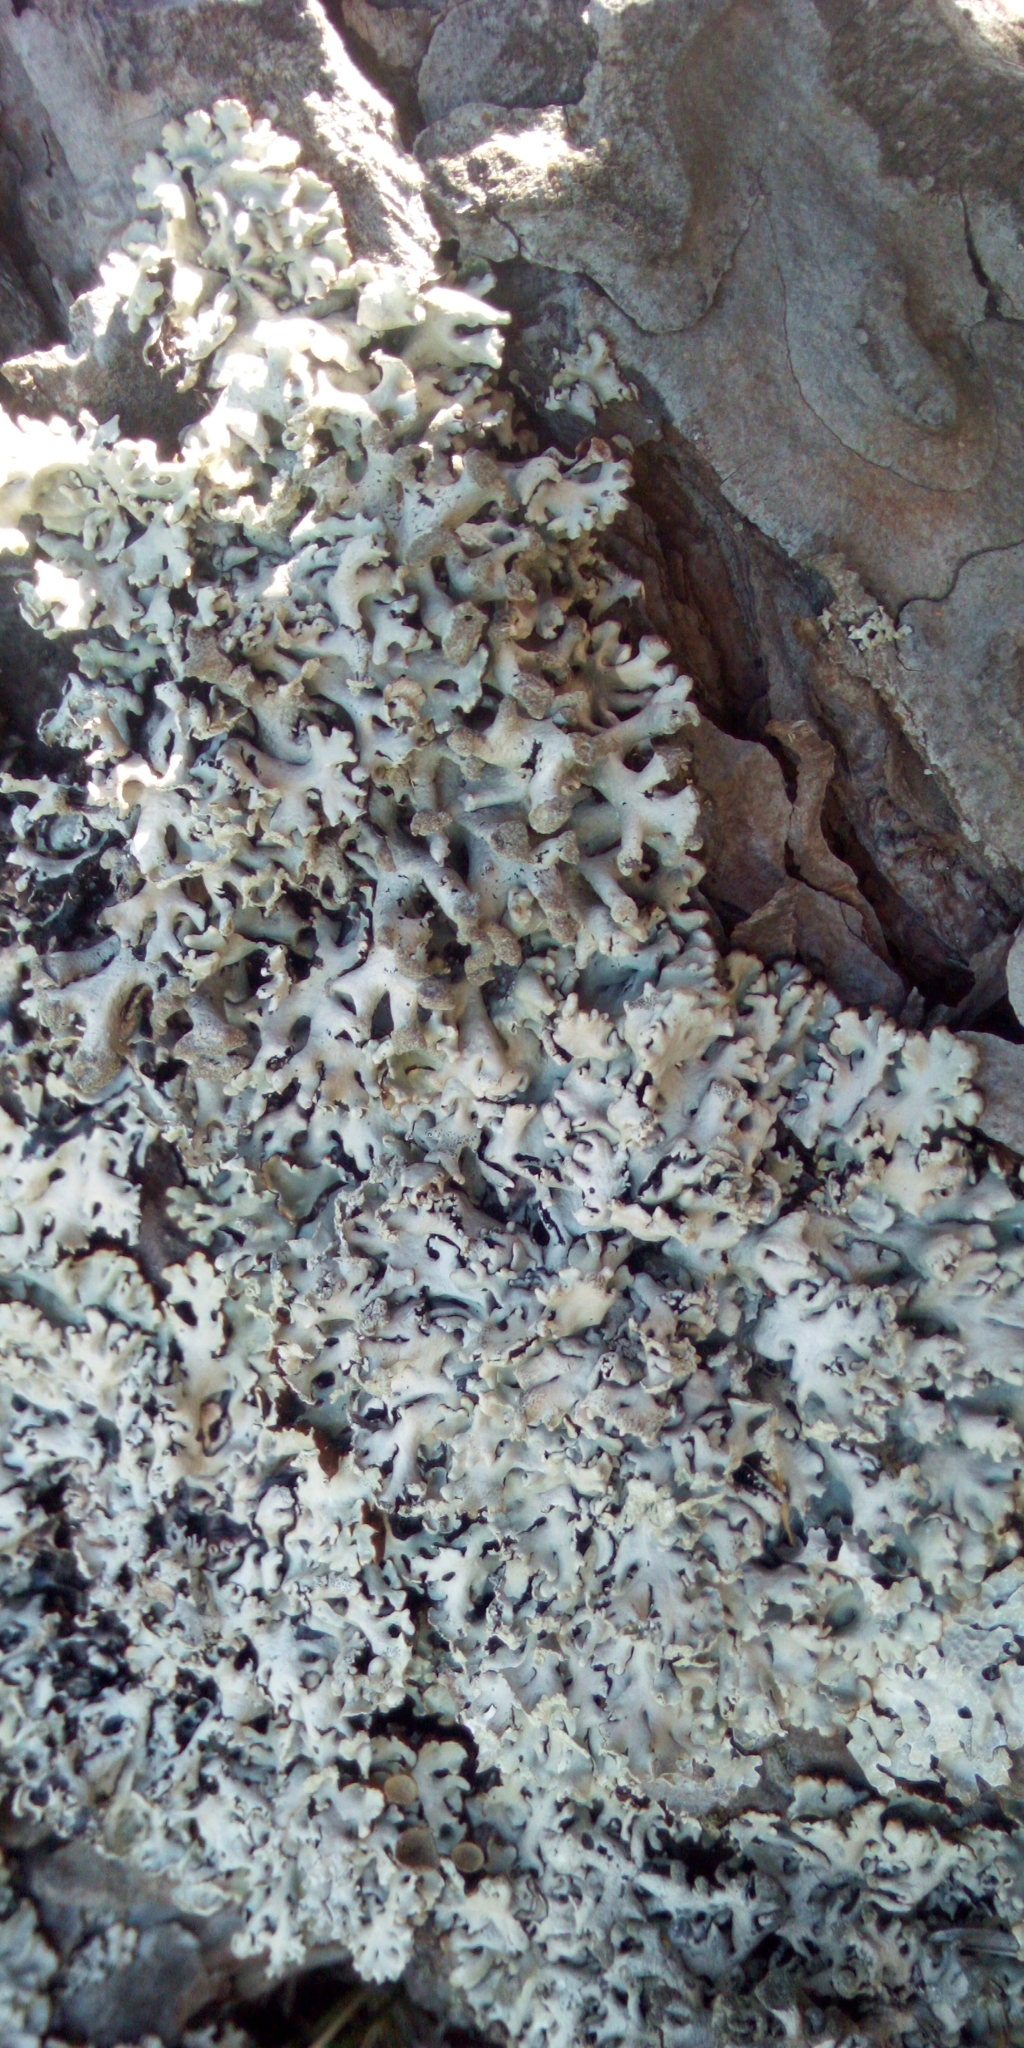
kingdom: Fungi
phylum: Ascomycota
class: Lecanoromycetes
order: Lecanorales
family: Parmeliaceae
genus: Hypogymnia
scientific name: Hypogymnia physodes
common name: Dark crottle
